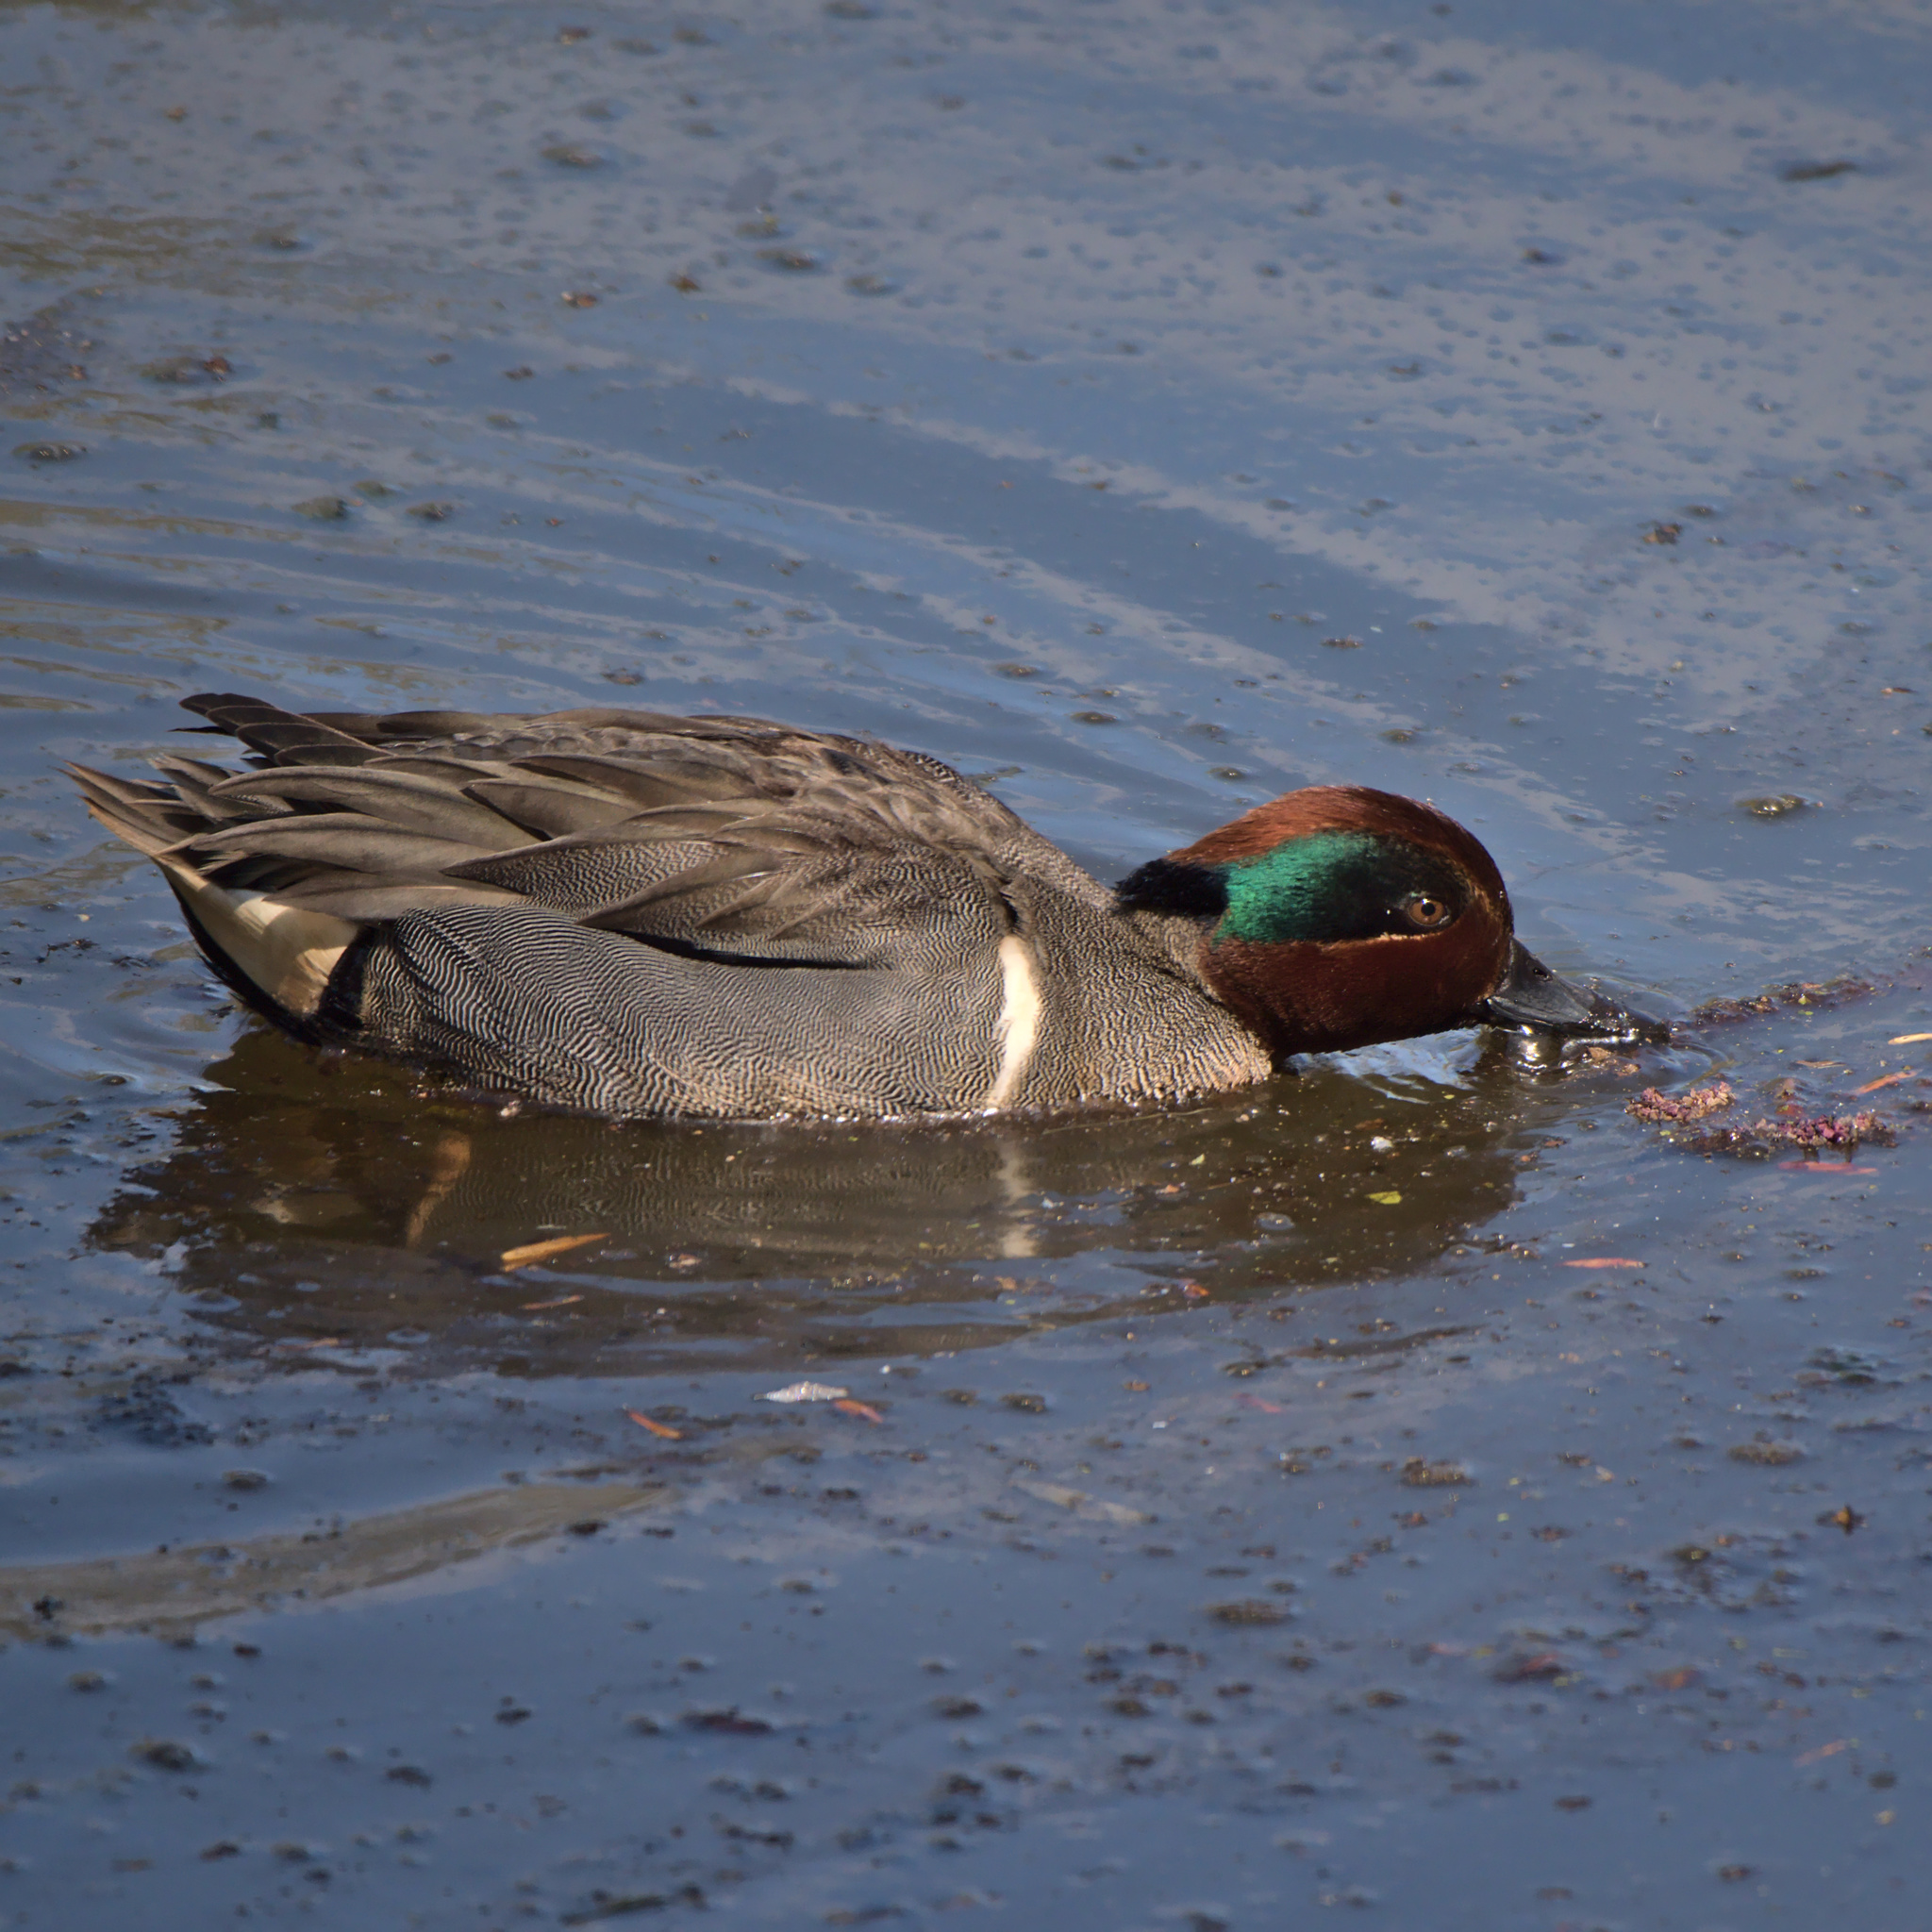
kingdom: Animalia
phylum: Chordata
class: Aves
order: Anseriformes
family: Anatidae
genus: Anas
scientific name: Anas crecca
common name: Eurasian teal
